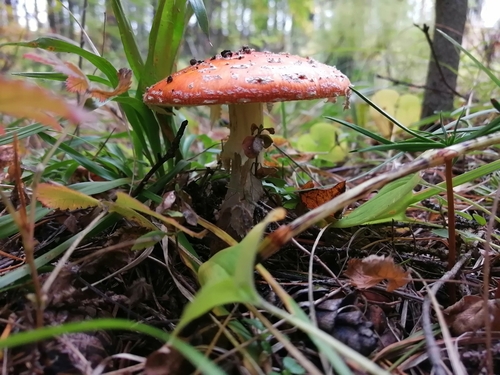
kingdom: Fungi
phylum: Basidiomycota
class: Agaricomycetes
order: Agaricales
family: Amanitaceae
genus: Amanita
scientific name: Amanita muscaria
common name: Fly agaric
